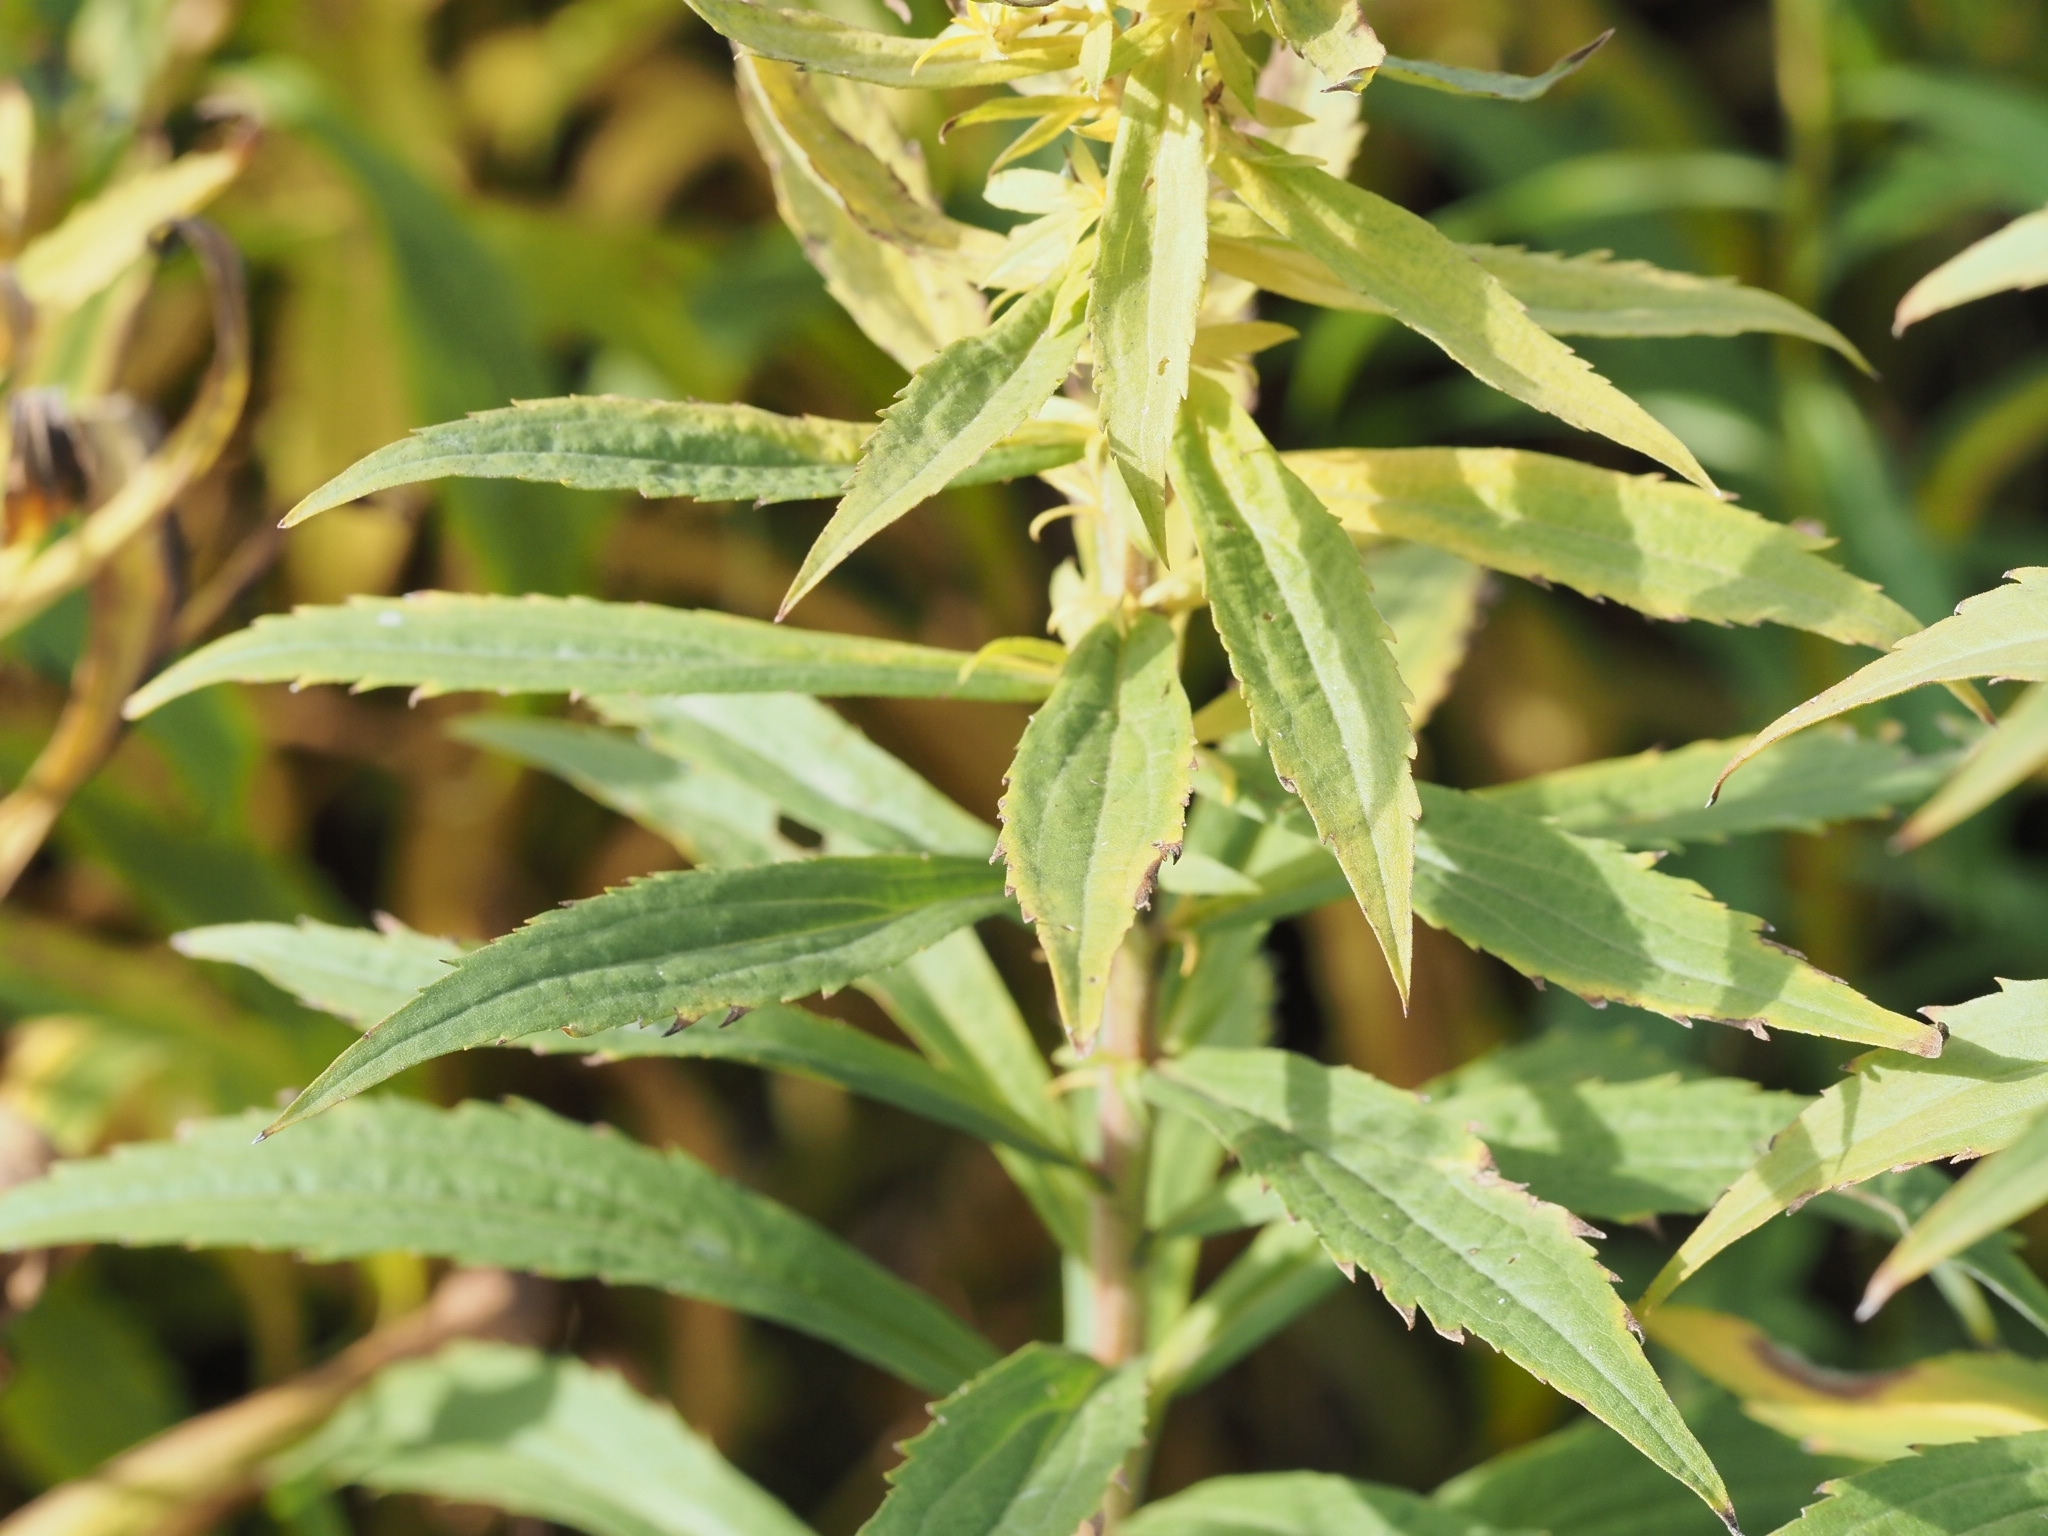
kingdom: Plantae
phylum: Tracheophyta
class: Magnoliopsida
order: Asterales
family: Asteraceae
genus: Solidago
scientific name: Solidago canadensis
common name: Canada goldenrod
